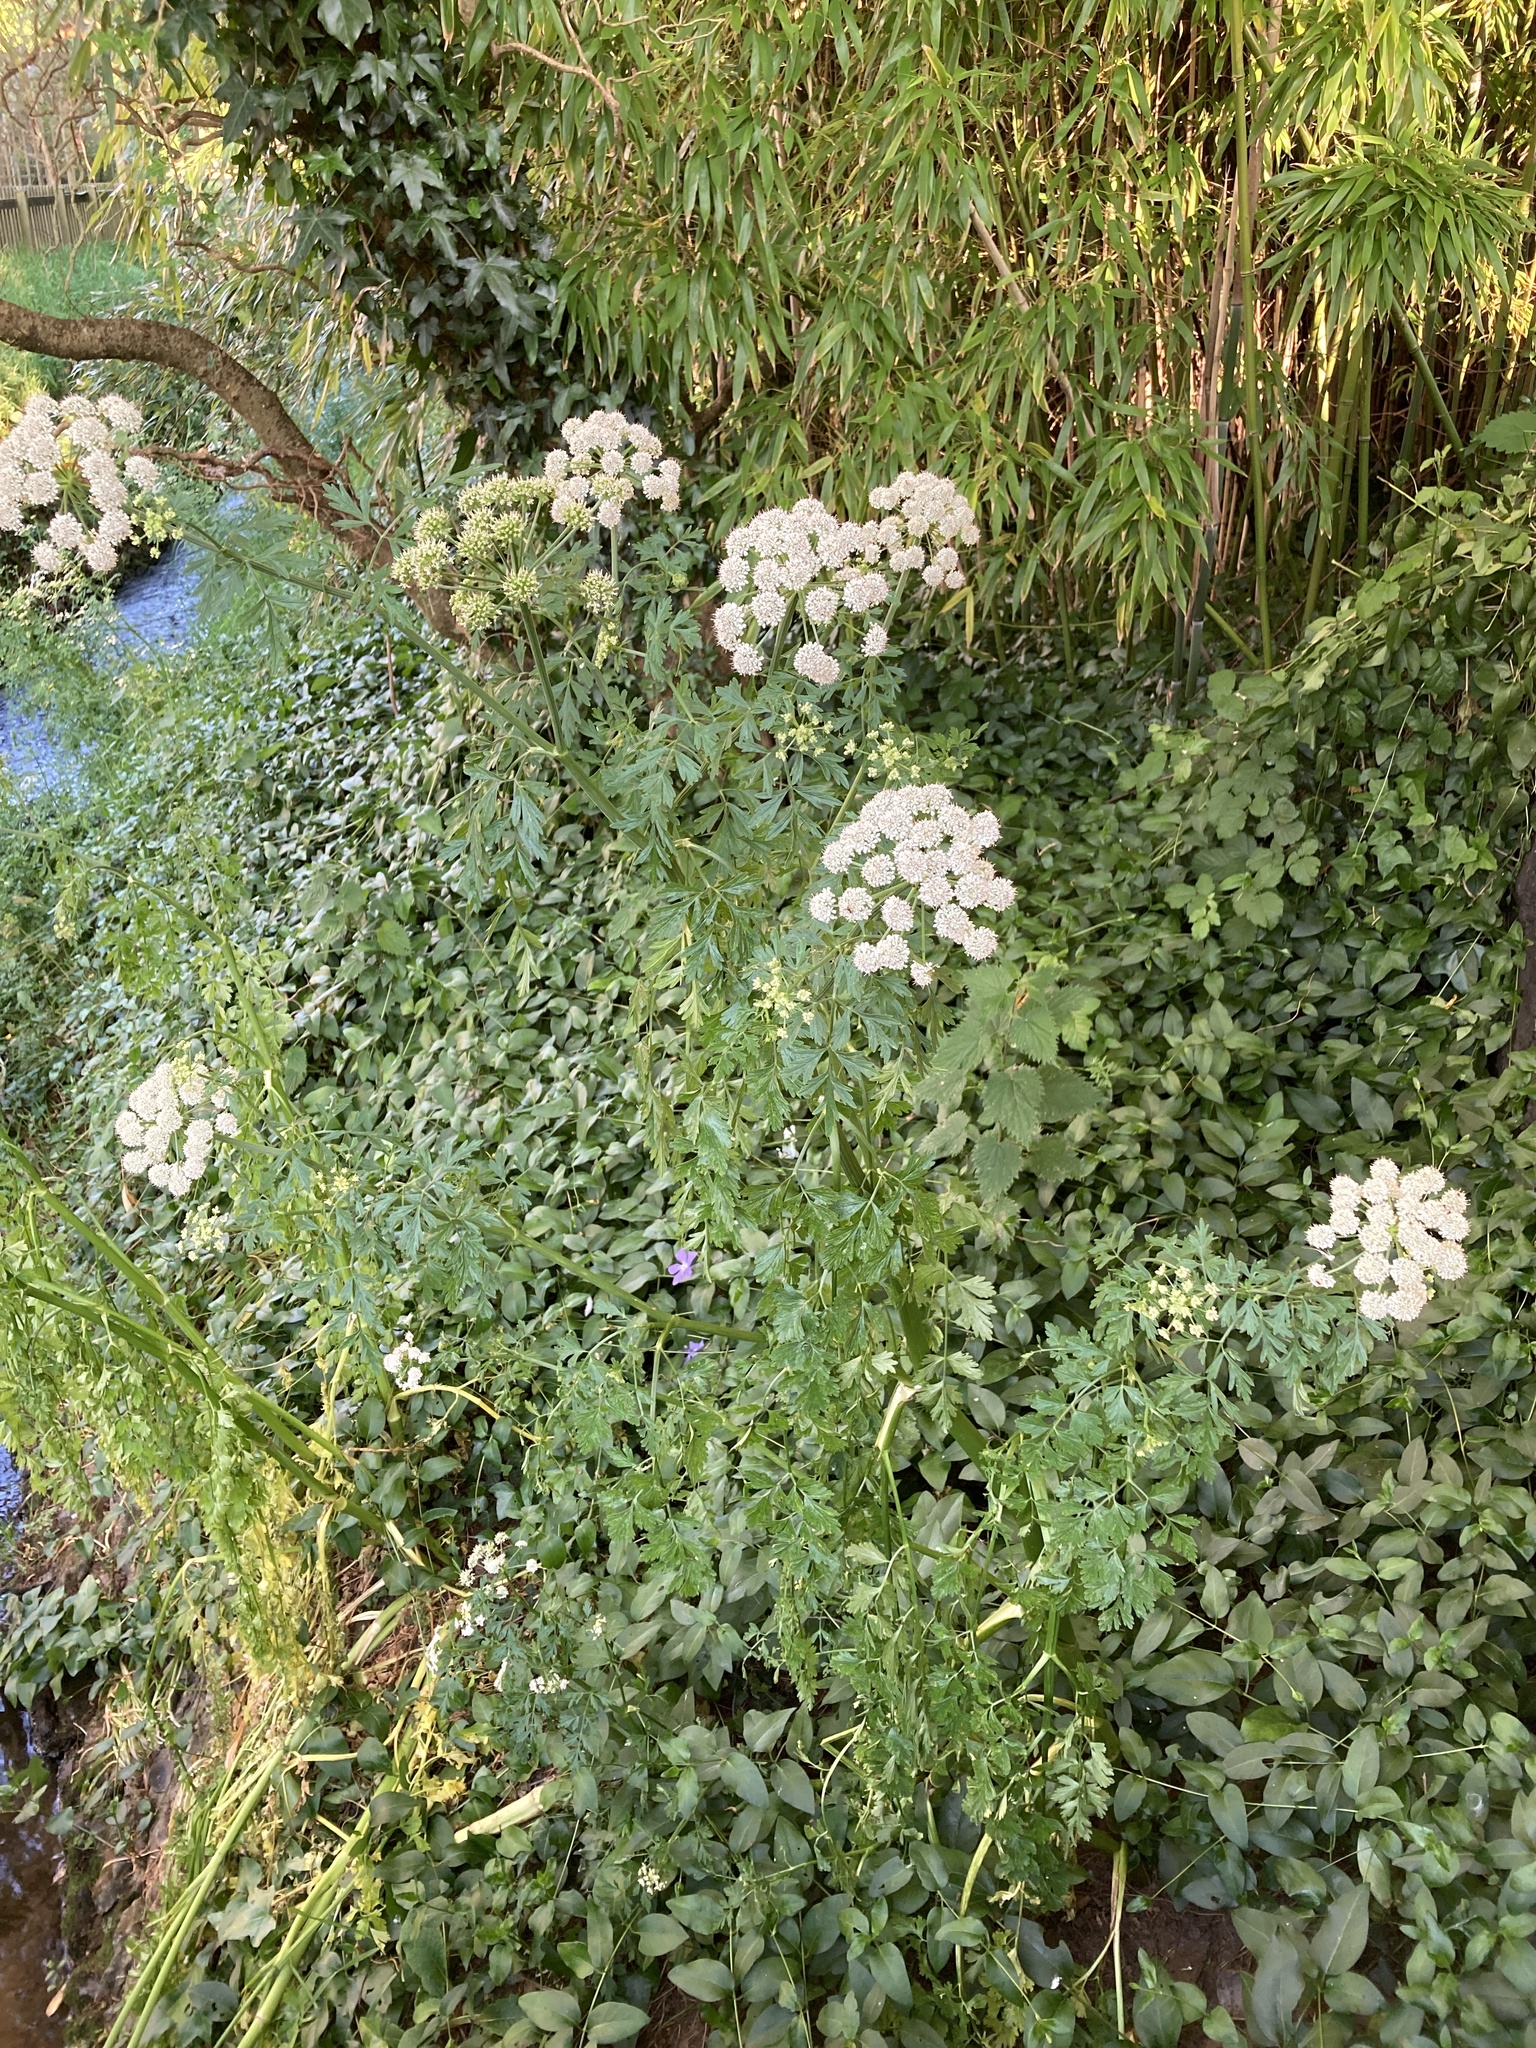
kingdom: Plantae
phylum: Tracheophyta
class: Magnoliopsida
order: Apiales
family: Apiaceae
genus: Oenanthe
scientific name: Oenanthe crocata
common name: Hemlock water-dropwort
